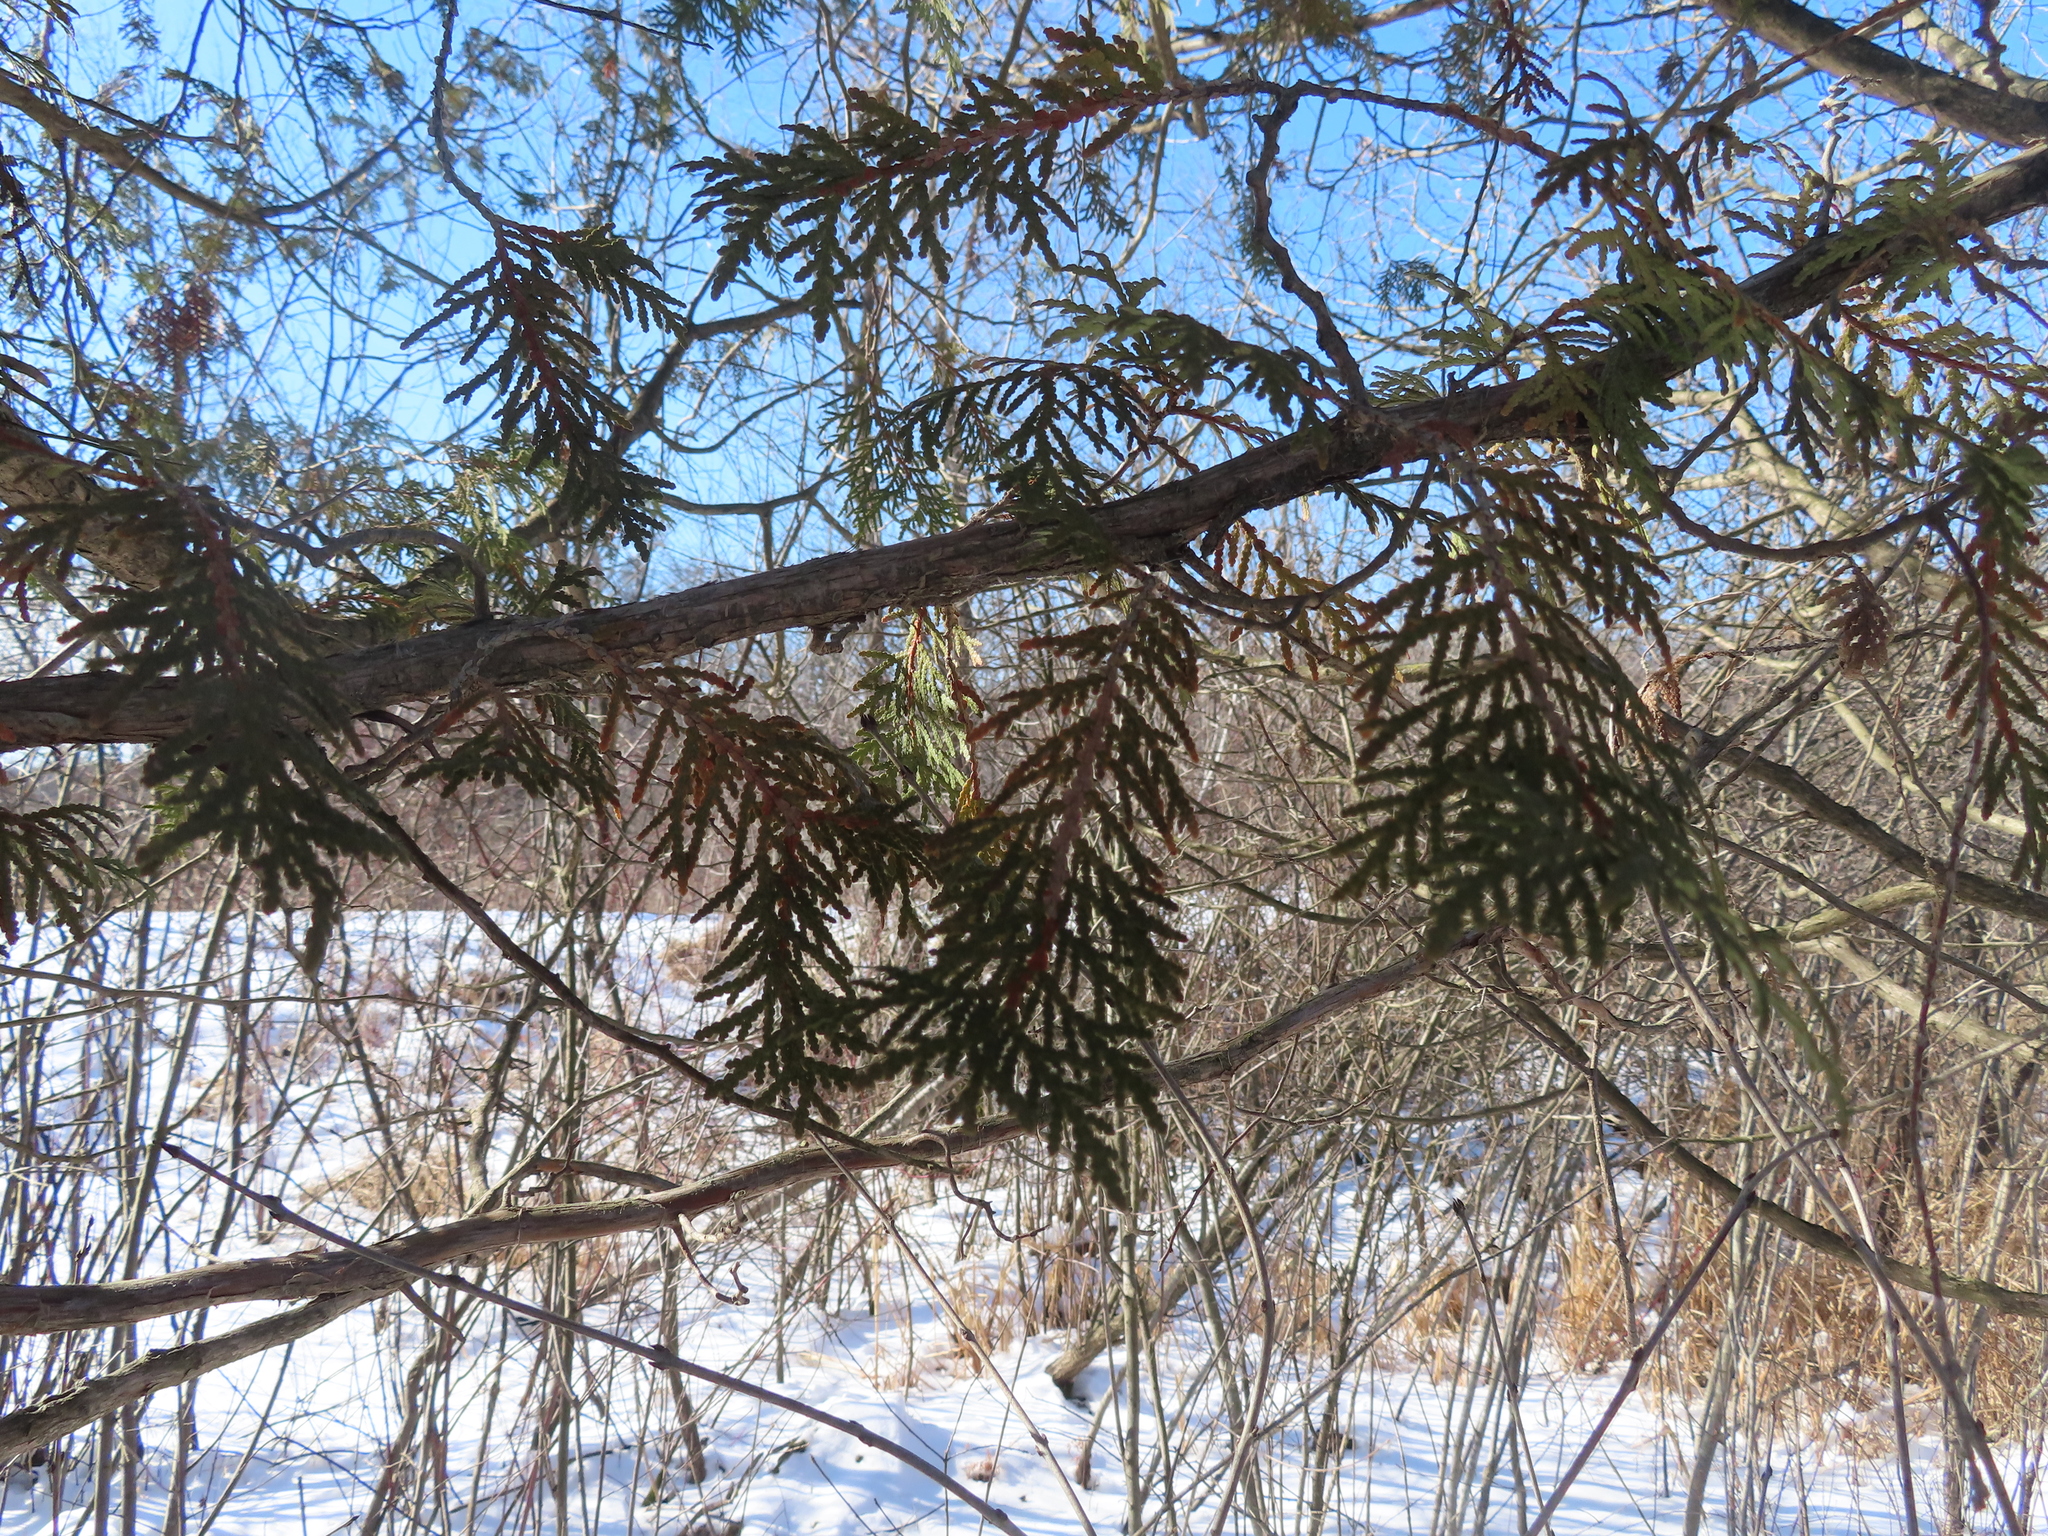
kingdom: Plantae
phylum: Tracheophyta
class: Pinopsida
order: Pinales
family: Cupressaceae
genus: Thuja
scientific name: Thuja occidentalis
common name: Northern white-cedar
